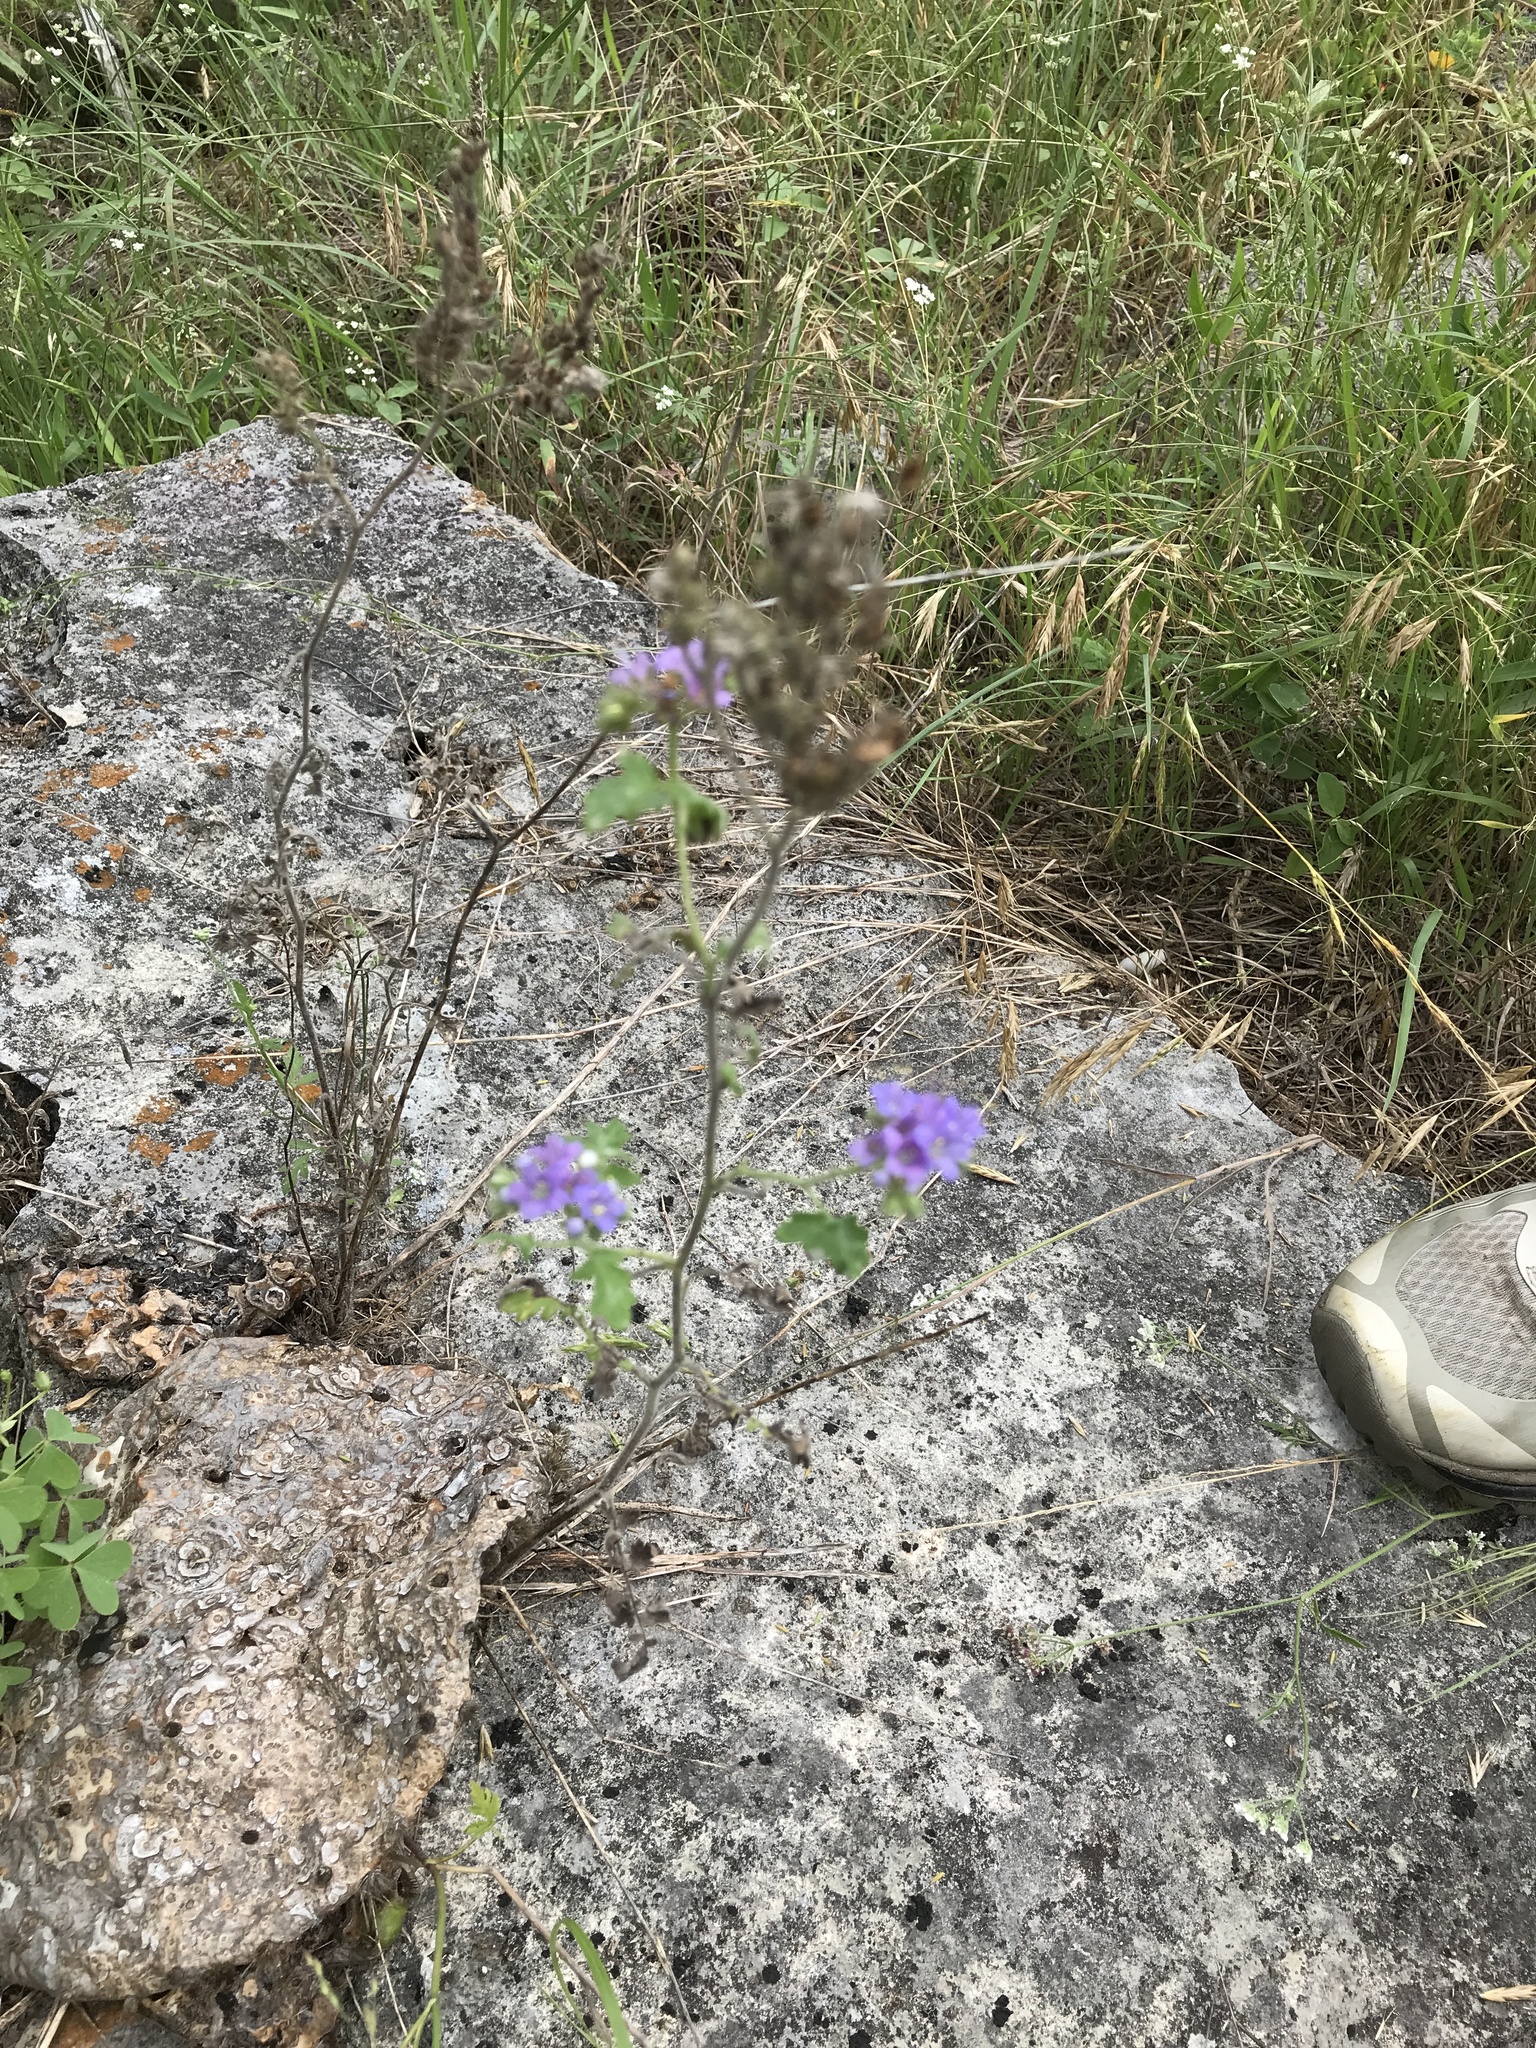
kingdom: Plantae
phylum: Tracheophyta
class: Magnoliopsida
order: Boraginales
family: Hydrophyllaceae
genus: Phacelia
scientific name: Phacelia congesta
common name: Blue curls
